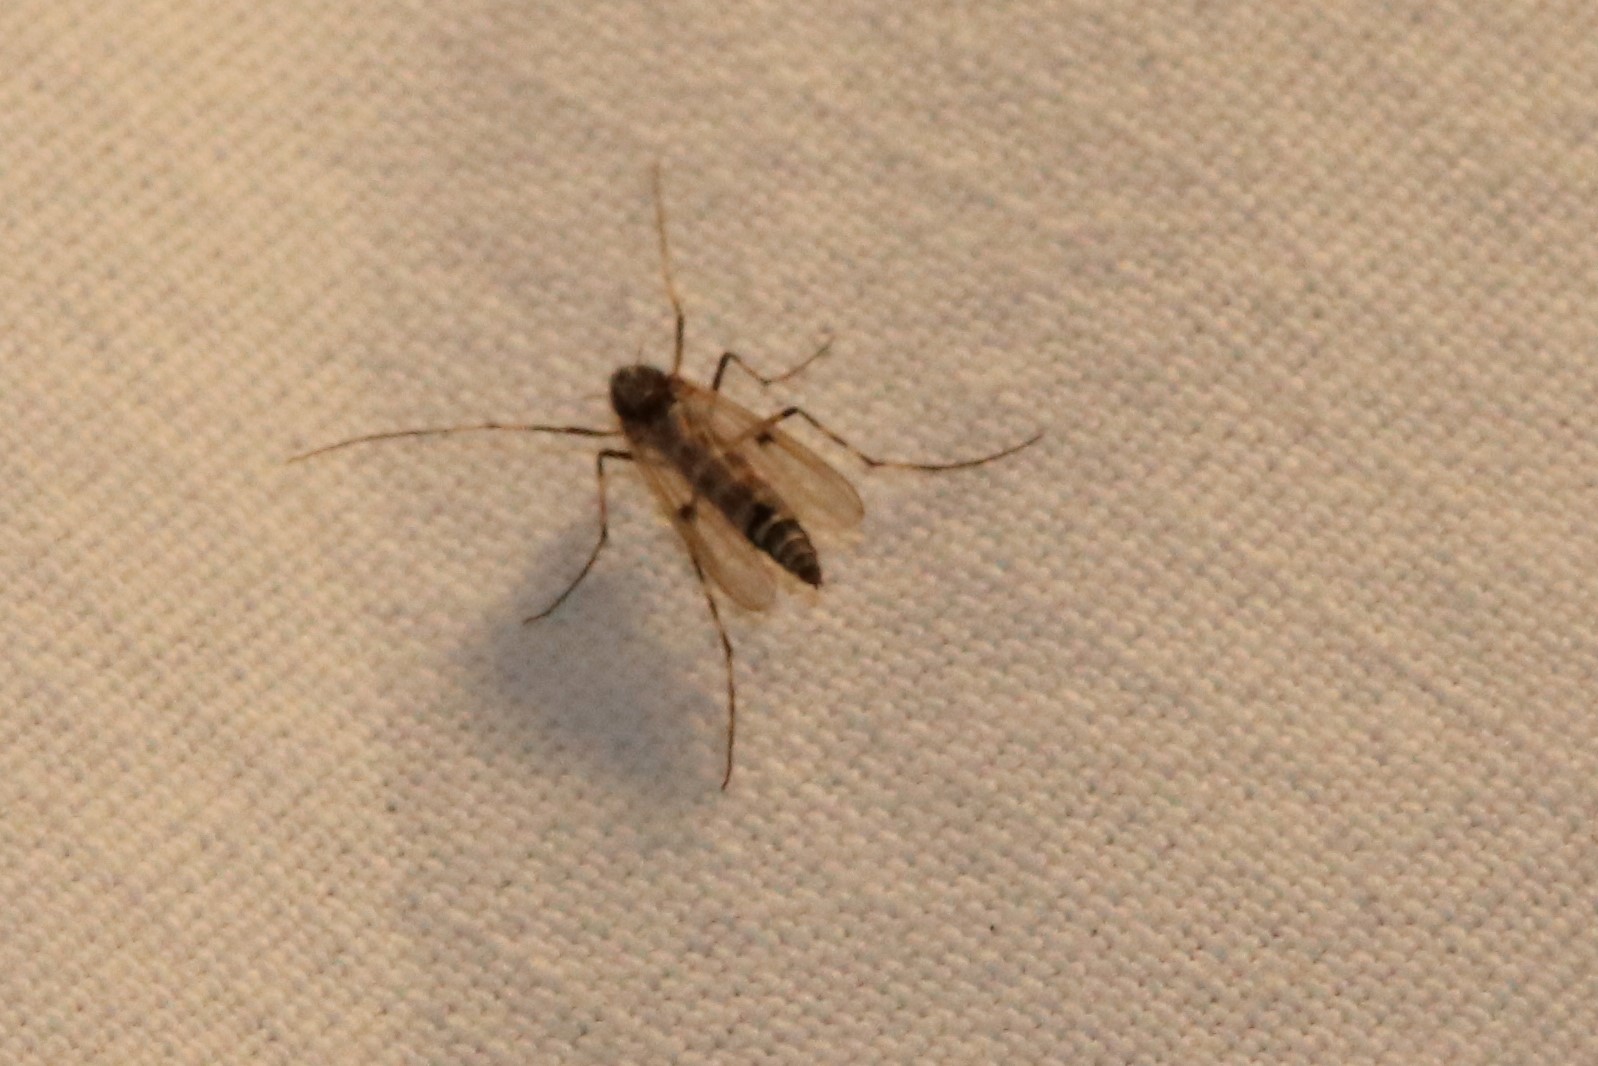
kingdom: Animalia
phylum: Arthropoda
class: Insecta
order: Diptera
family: Chironomidae
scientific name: Chironomidae
